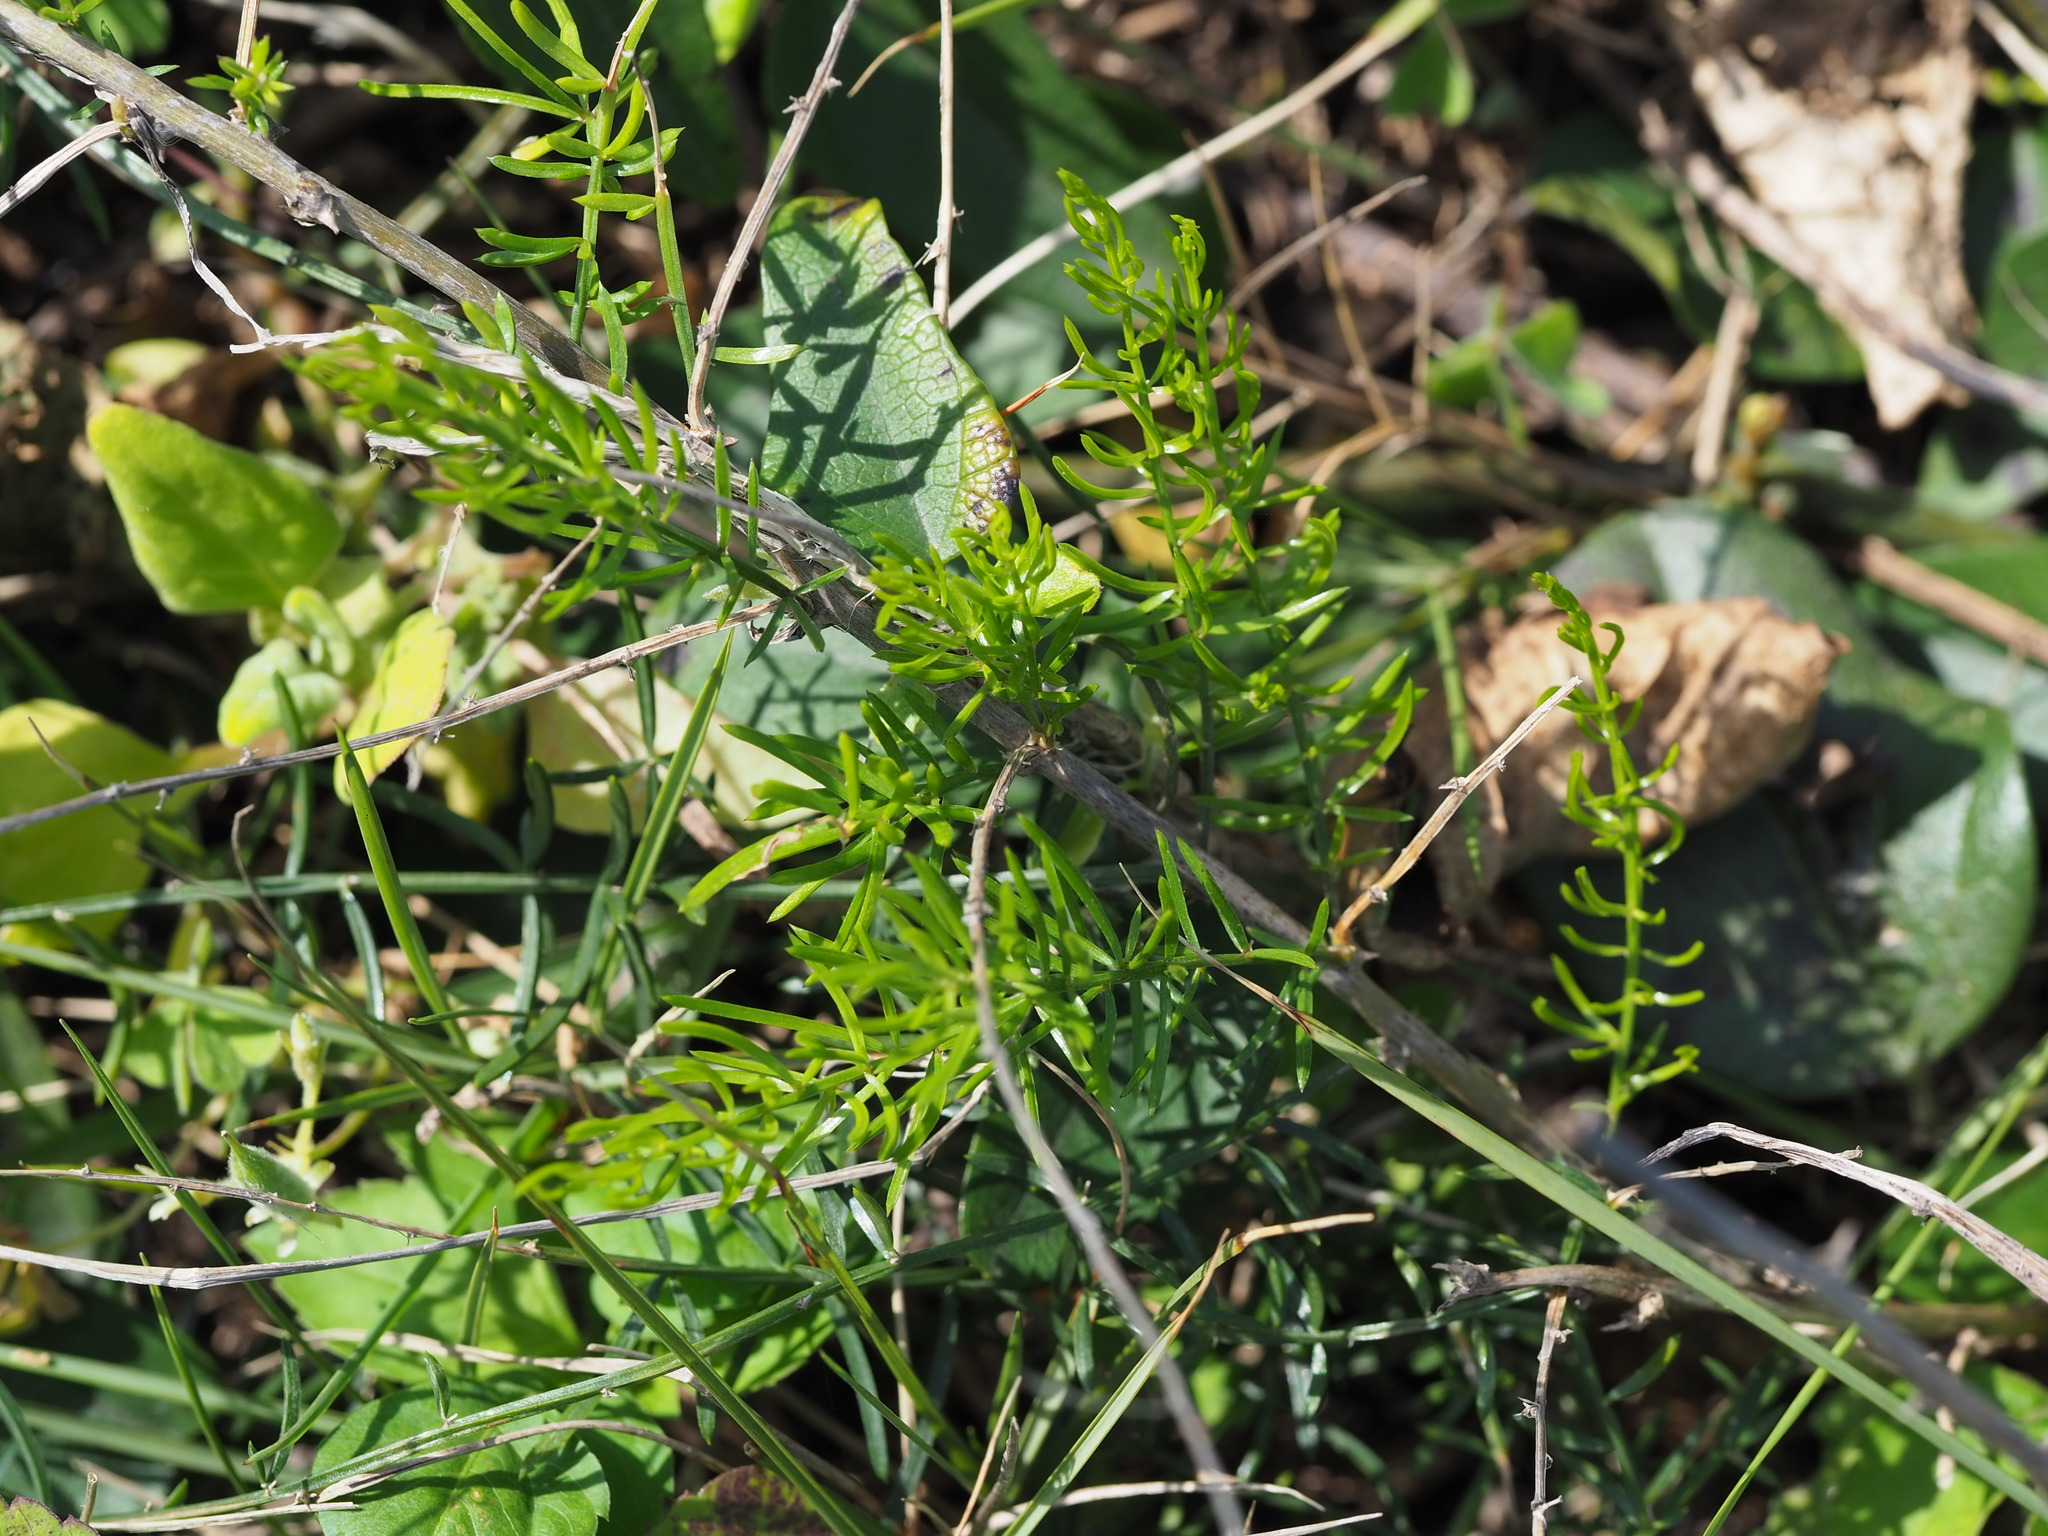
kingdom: Plantae
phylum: Tracheophyta
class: Liliopsida
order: Asparagales
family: Asparagaceae
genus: Asparagus
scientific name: Asparagus cochinchinensis
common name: Chinese asparagus
